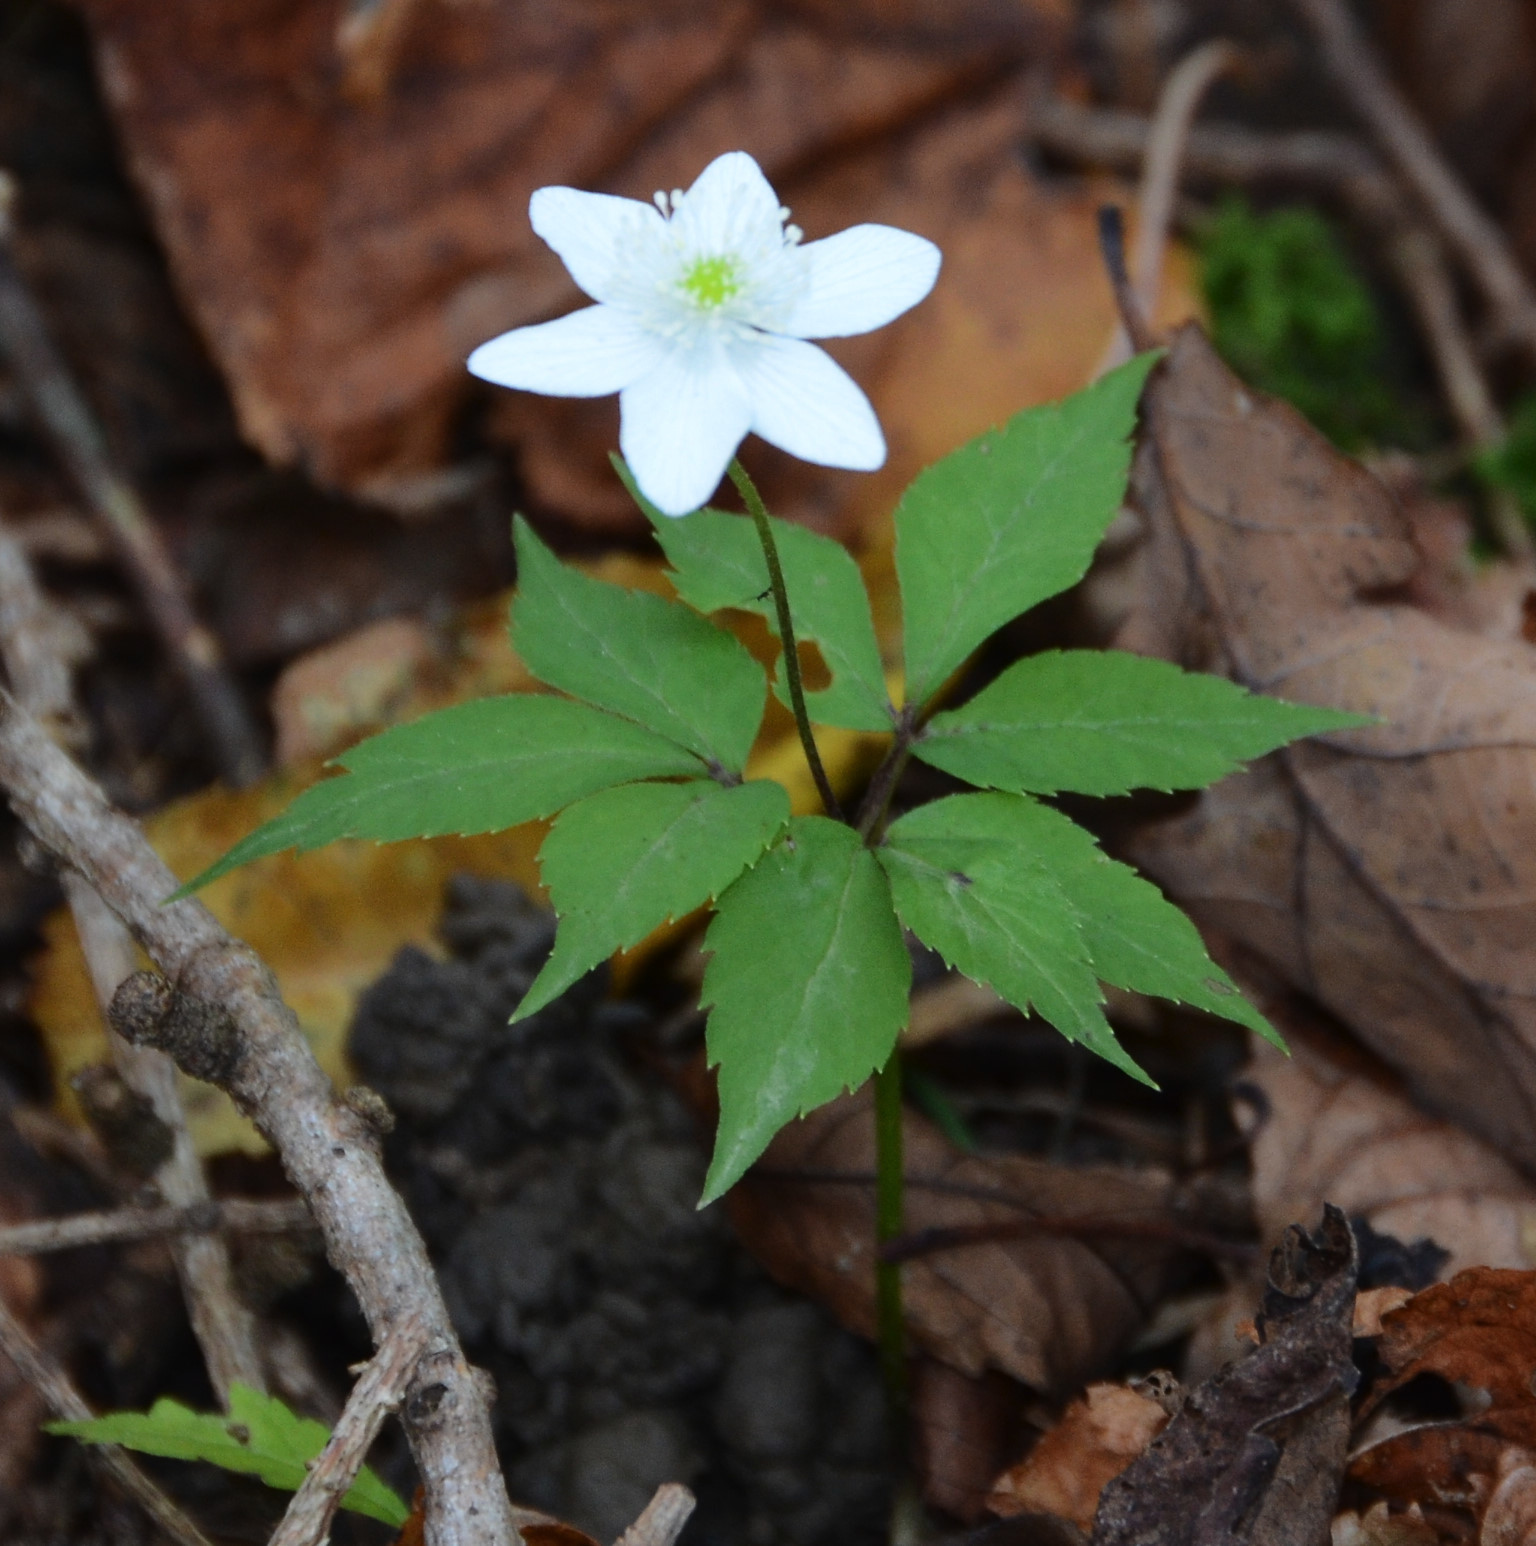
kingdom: Plantae
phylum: Tracheophyta
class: Magnoliopsida
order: Ranunculales
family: Ranunculaceae
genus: Anemone
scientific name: Anemone trifolia
